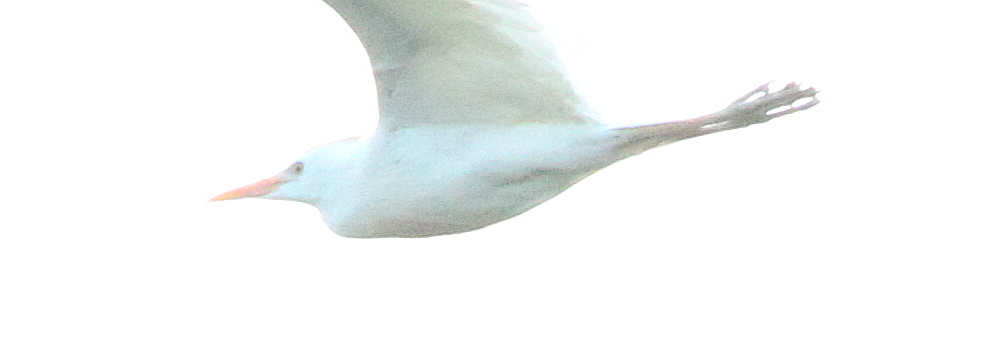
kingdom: Animalia
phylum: Chordata
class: Aves
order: Pelecaniformes
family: Ardeidae
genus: Bubulcus
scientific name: Bubulcus ibis
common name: Cattle egret
